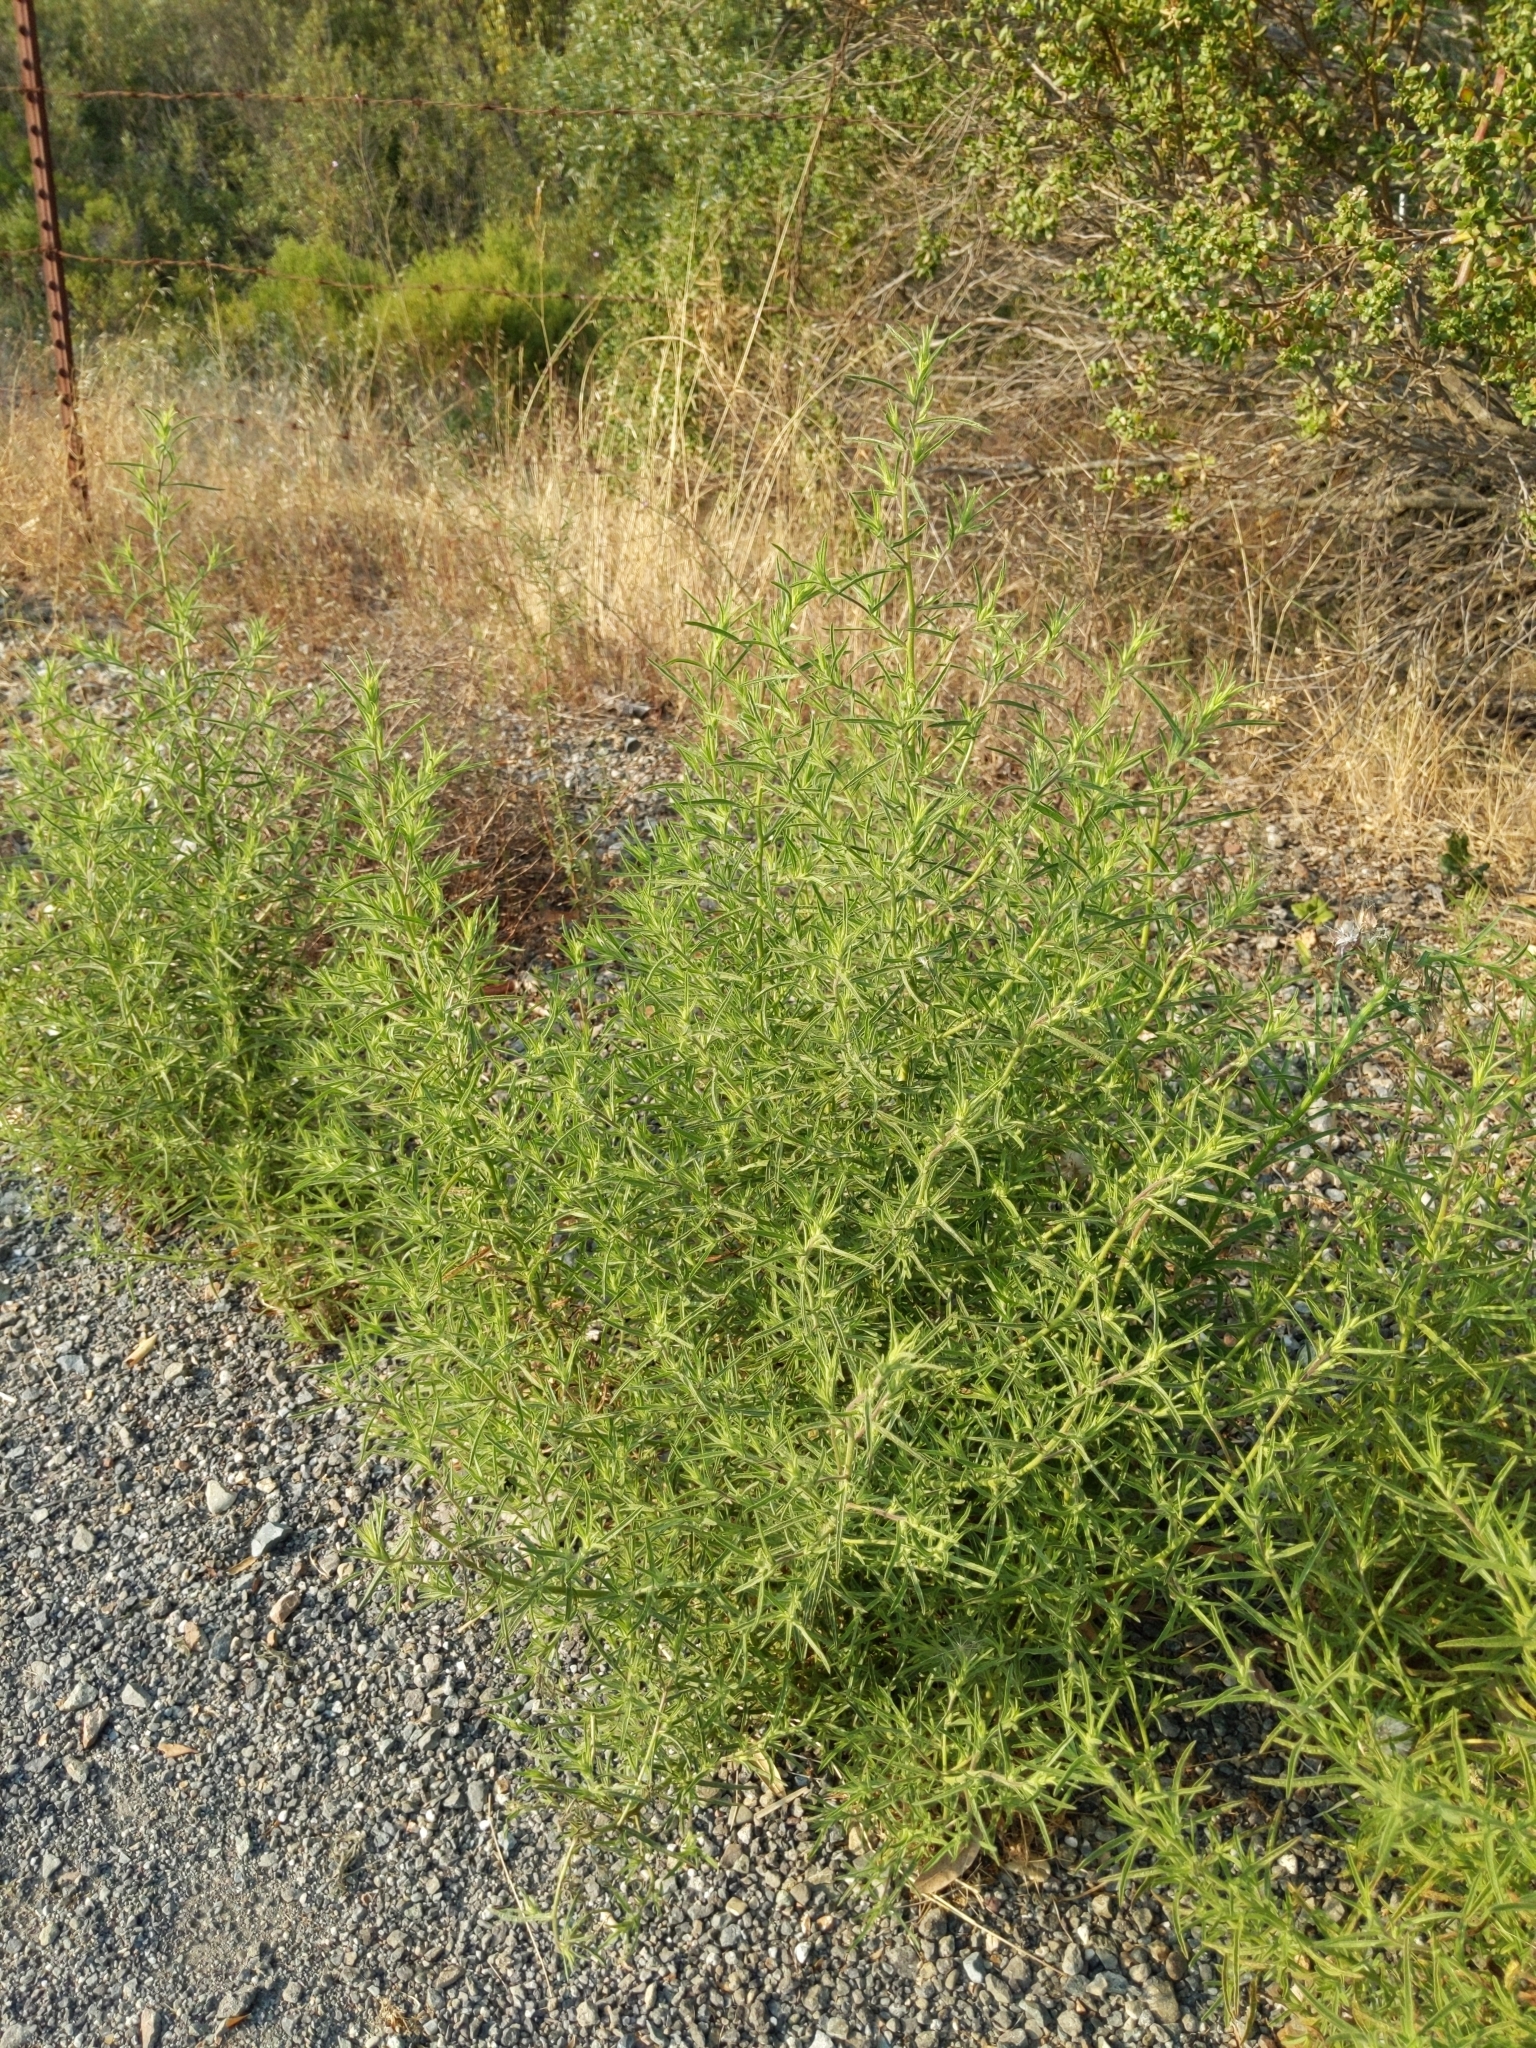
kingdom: Plantae
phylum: Tracheophyta
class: Magnoliopsida
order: Asterales
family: Asteraceae
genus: Dittrichia
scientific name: Dittrichia graveolens
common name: Stinking fleabane
